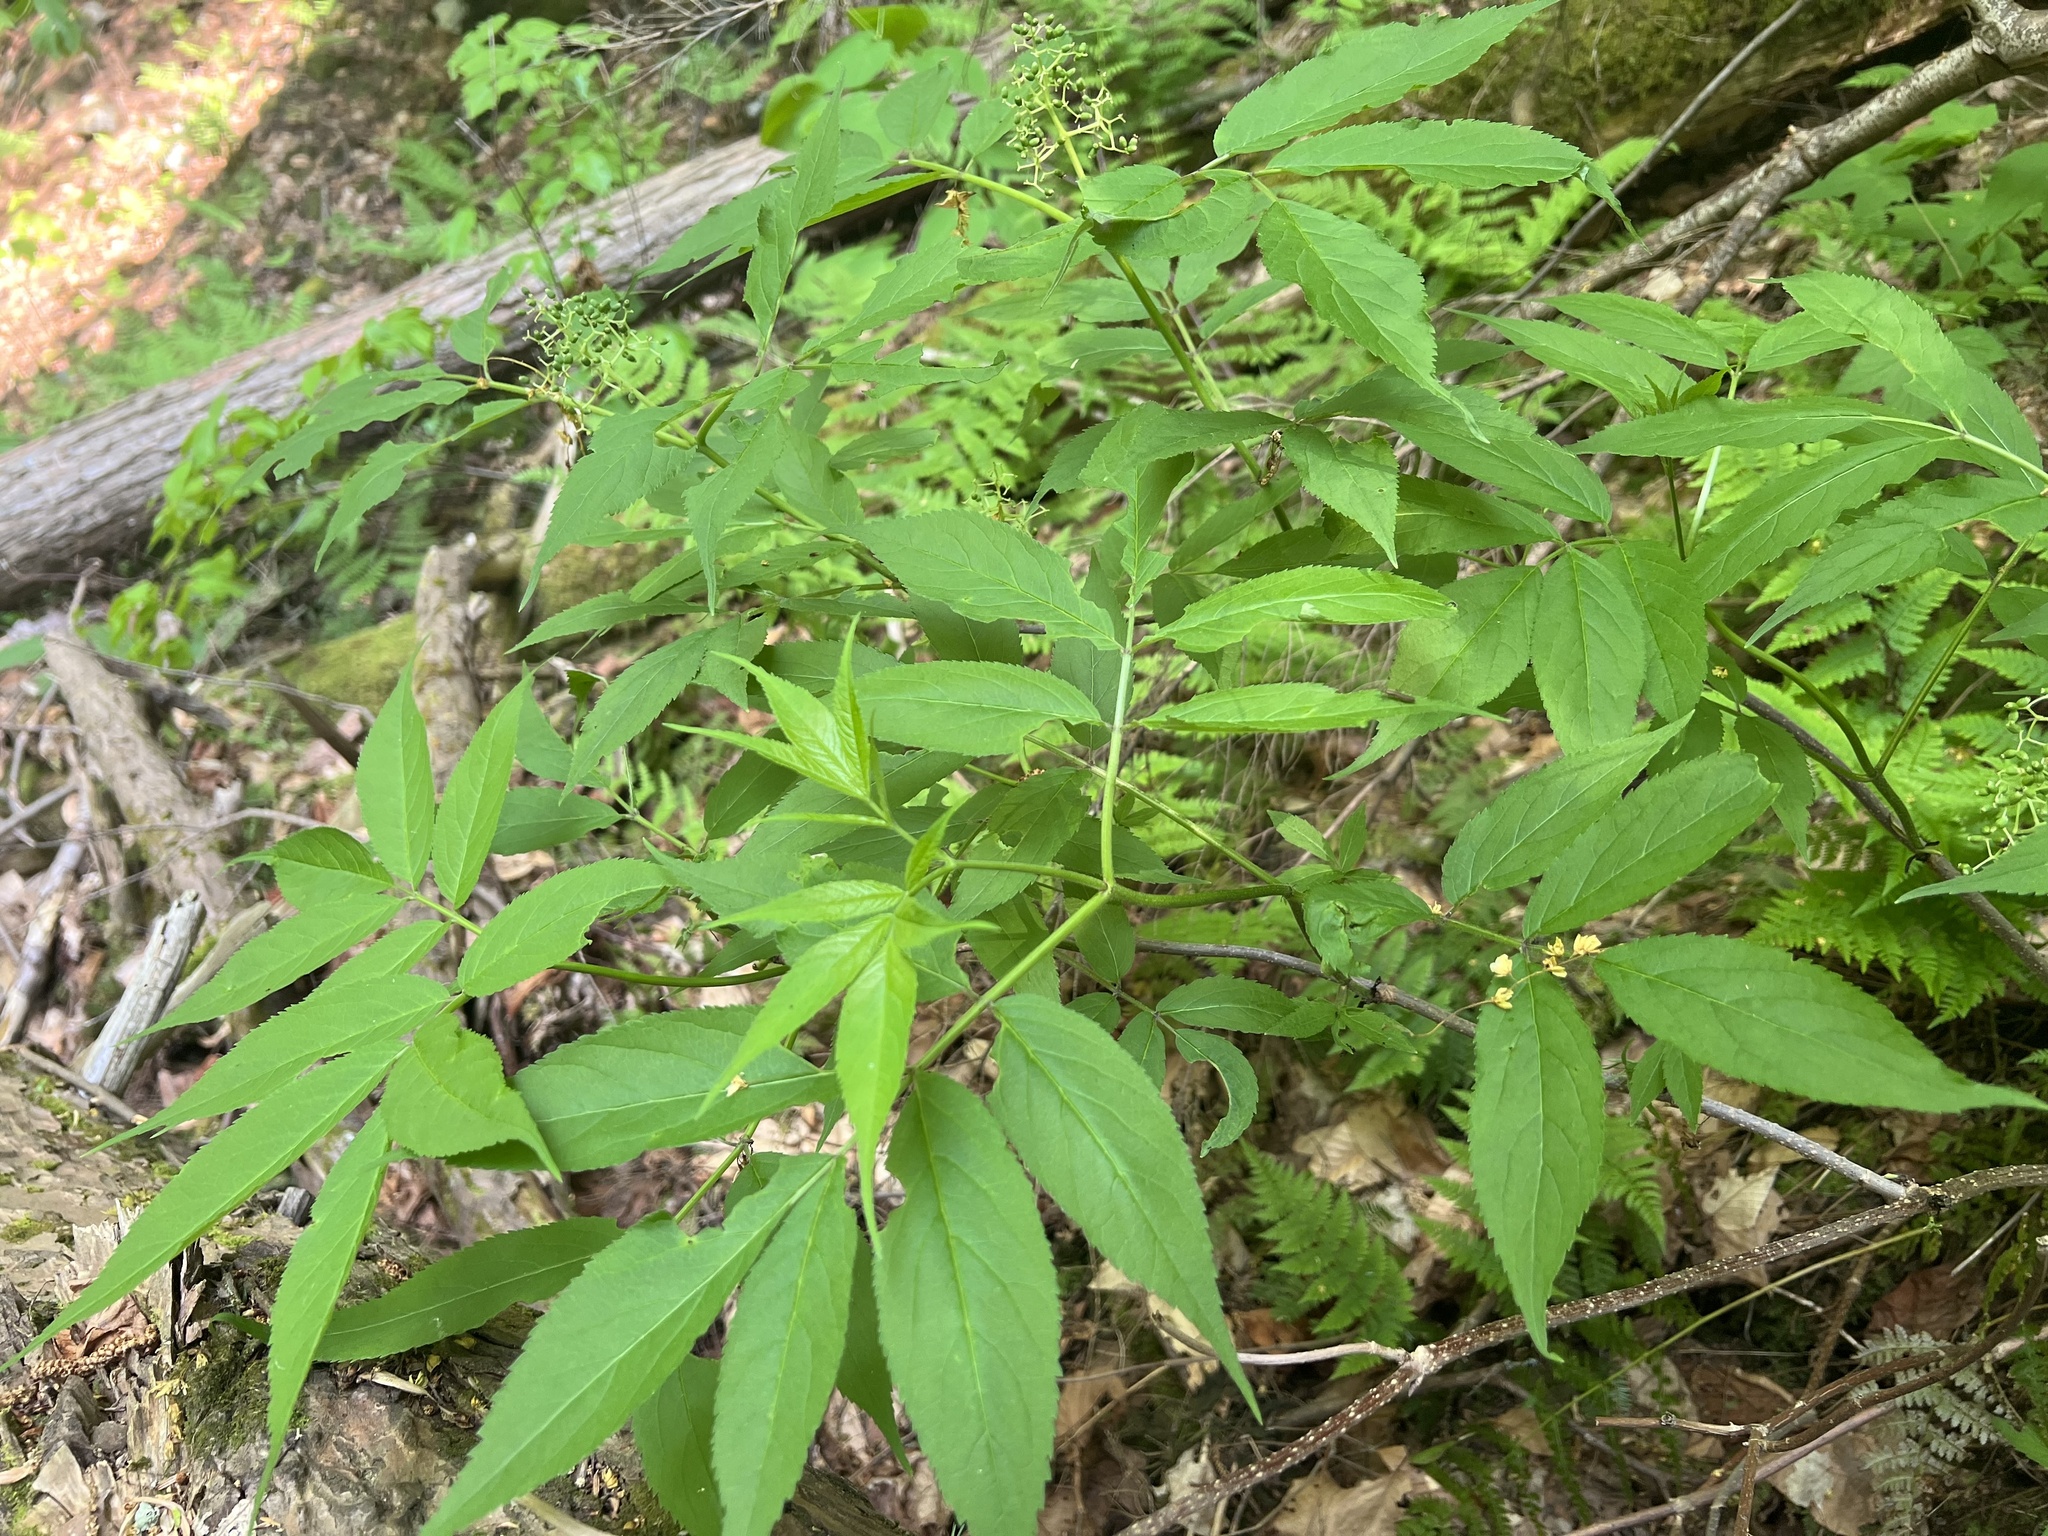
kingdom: Plantae
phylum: Tracheophyta
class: Magnoliopsida
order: Dipsacales
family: Viburnaceae
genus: Sambucus
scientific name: Sambucus racemosa
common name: Red-berried elder
